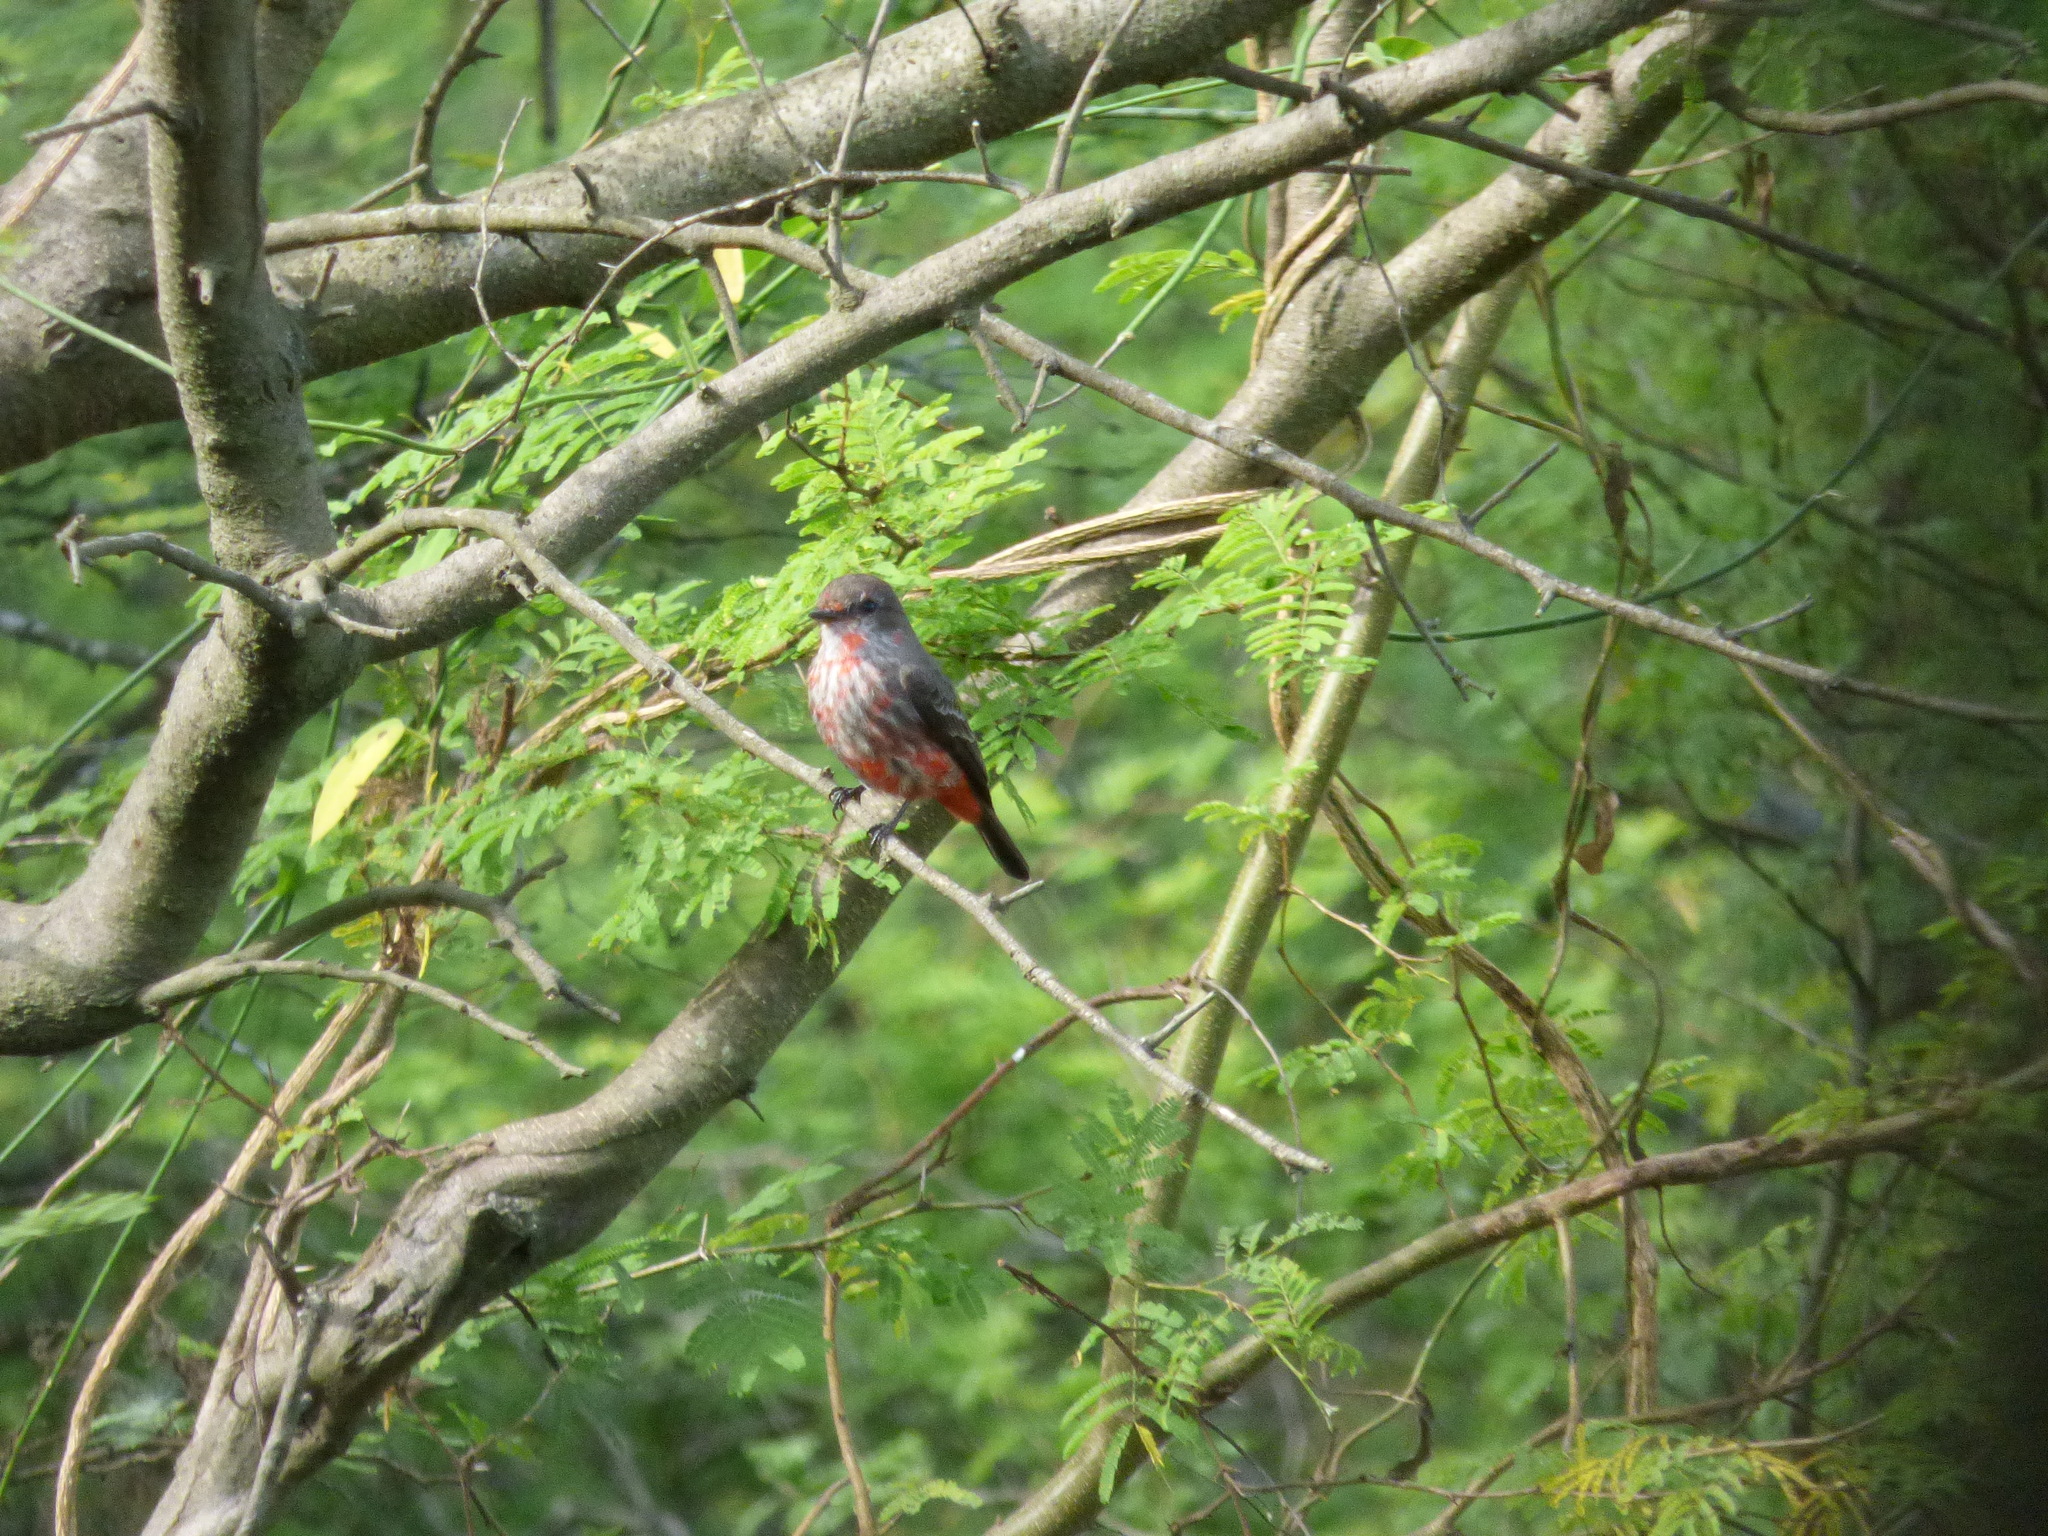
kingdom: Animalia
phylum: Chordata
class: Aves
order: Passeriformes
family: Tyrannidae
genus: Pyrocephalus
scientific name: Pyrocephalus rubinus
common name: Vermilion flycatcher
